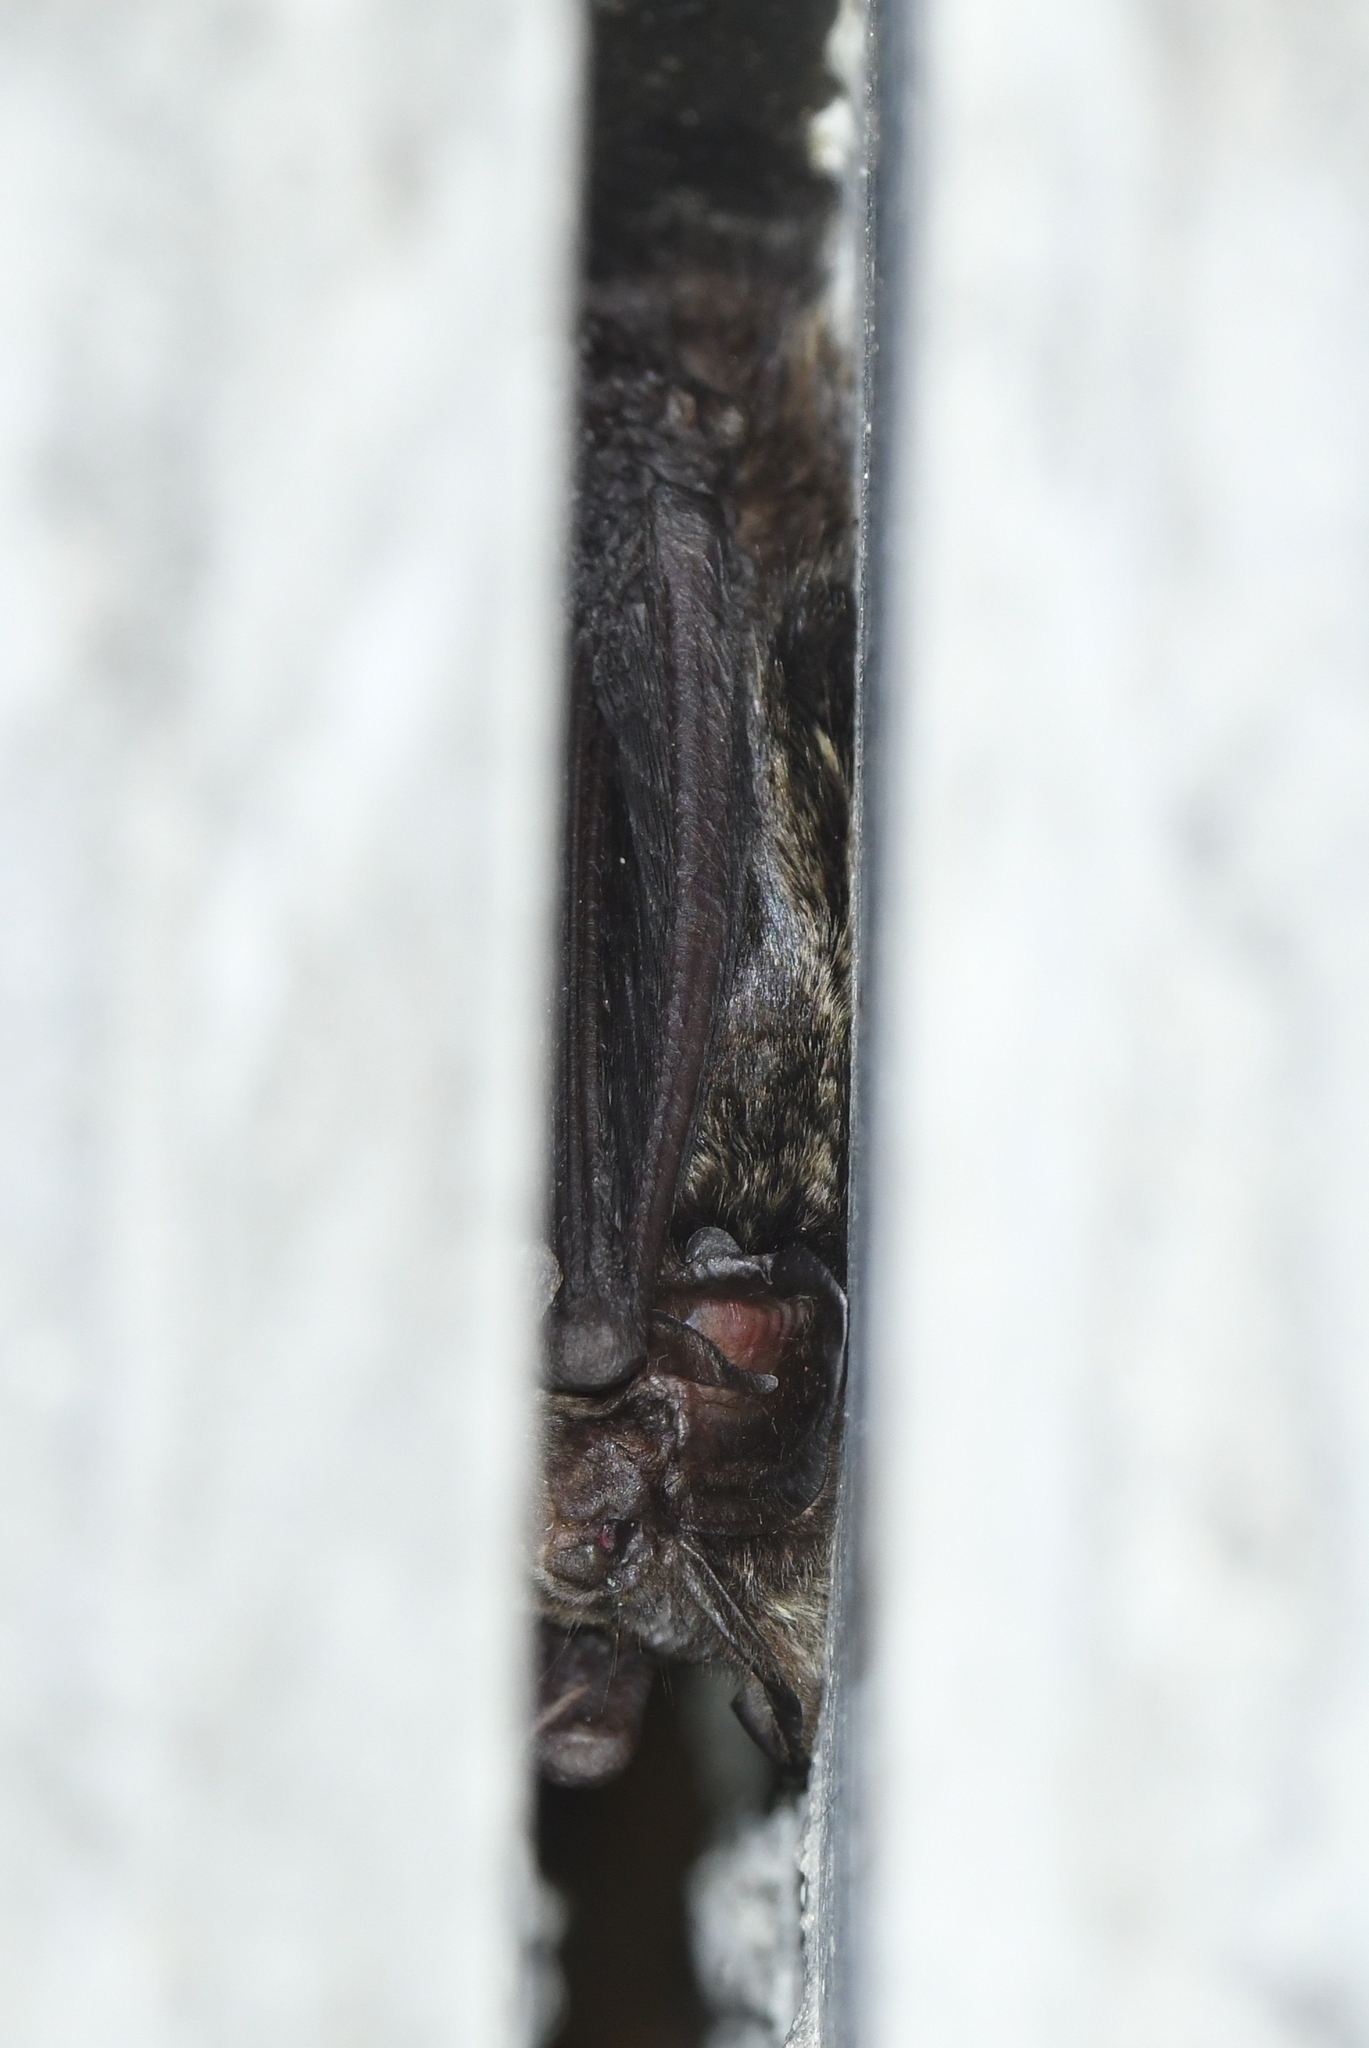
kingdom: Animalia
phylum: Chordata
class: Mammalia
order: Chiroptera
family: Vespertilionidae
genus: Barbastella
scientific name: Barbastella barbastellus
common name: Western barbastelle
